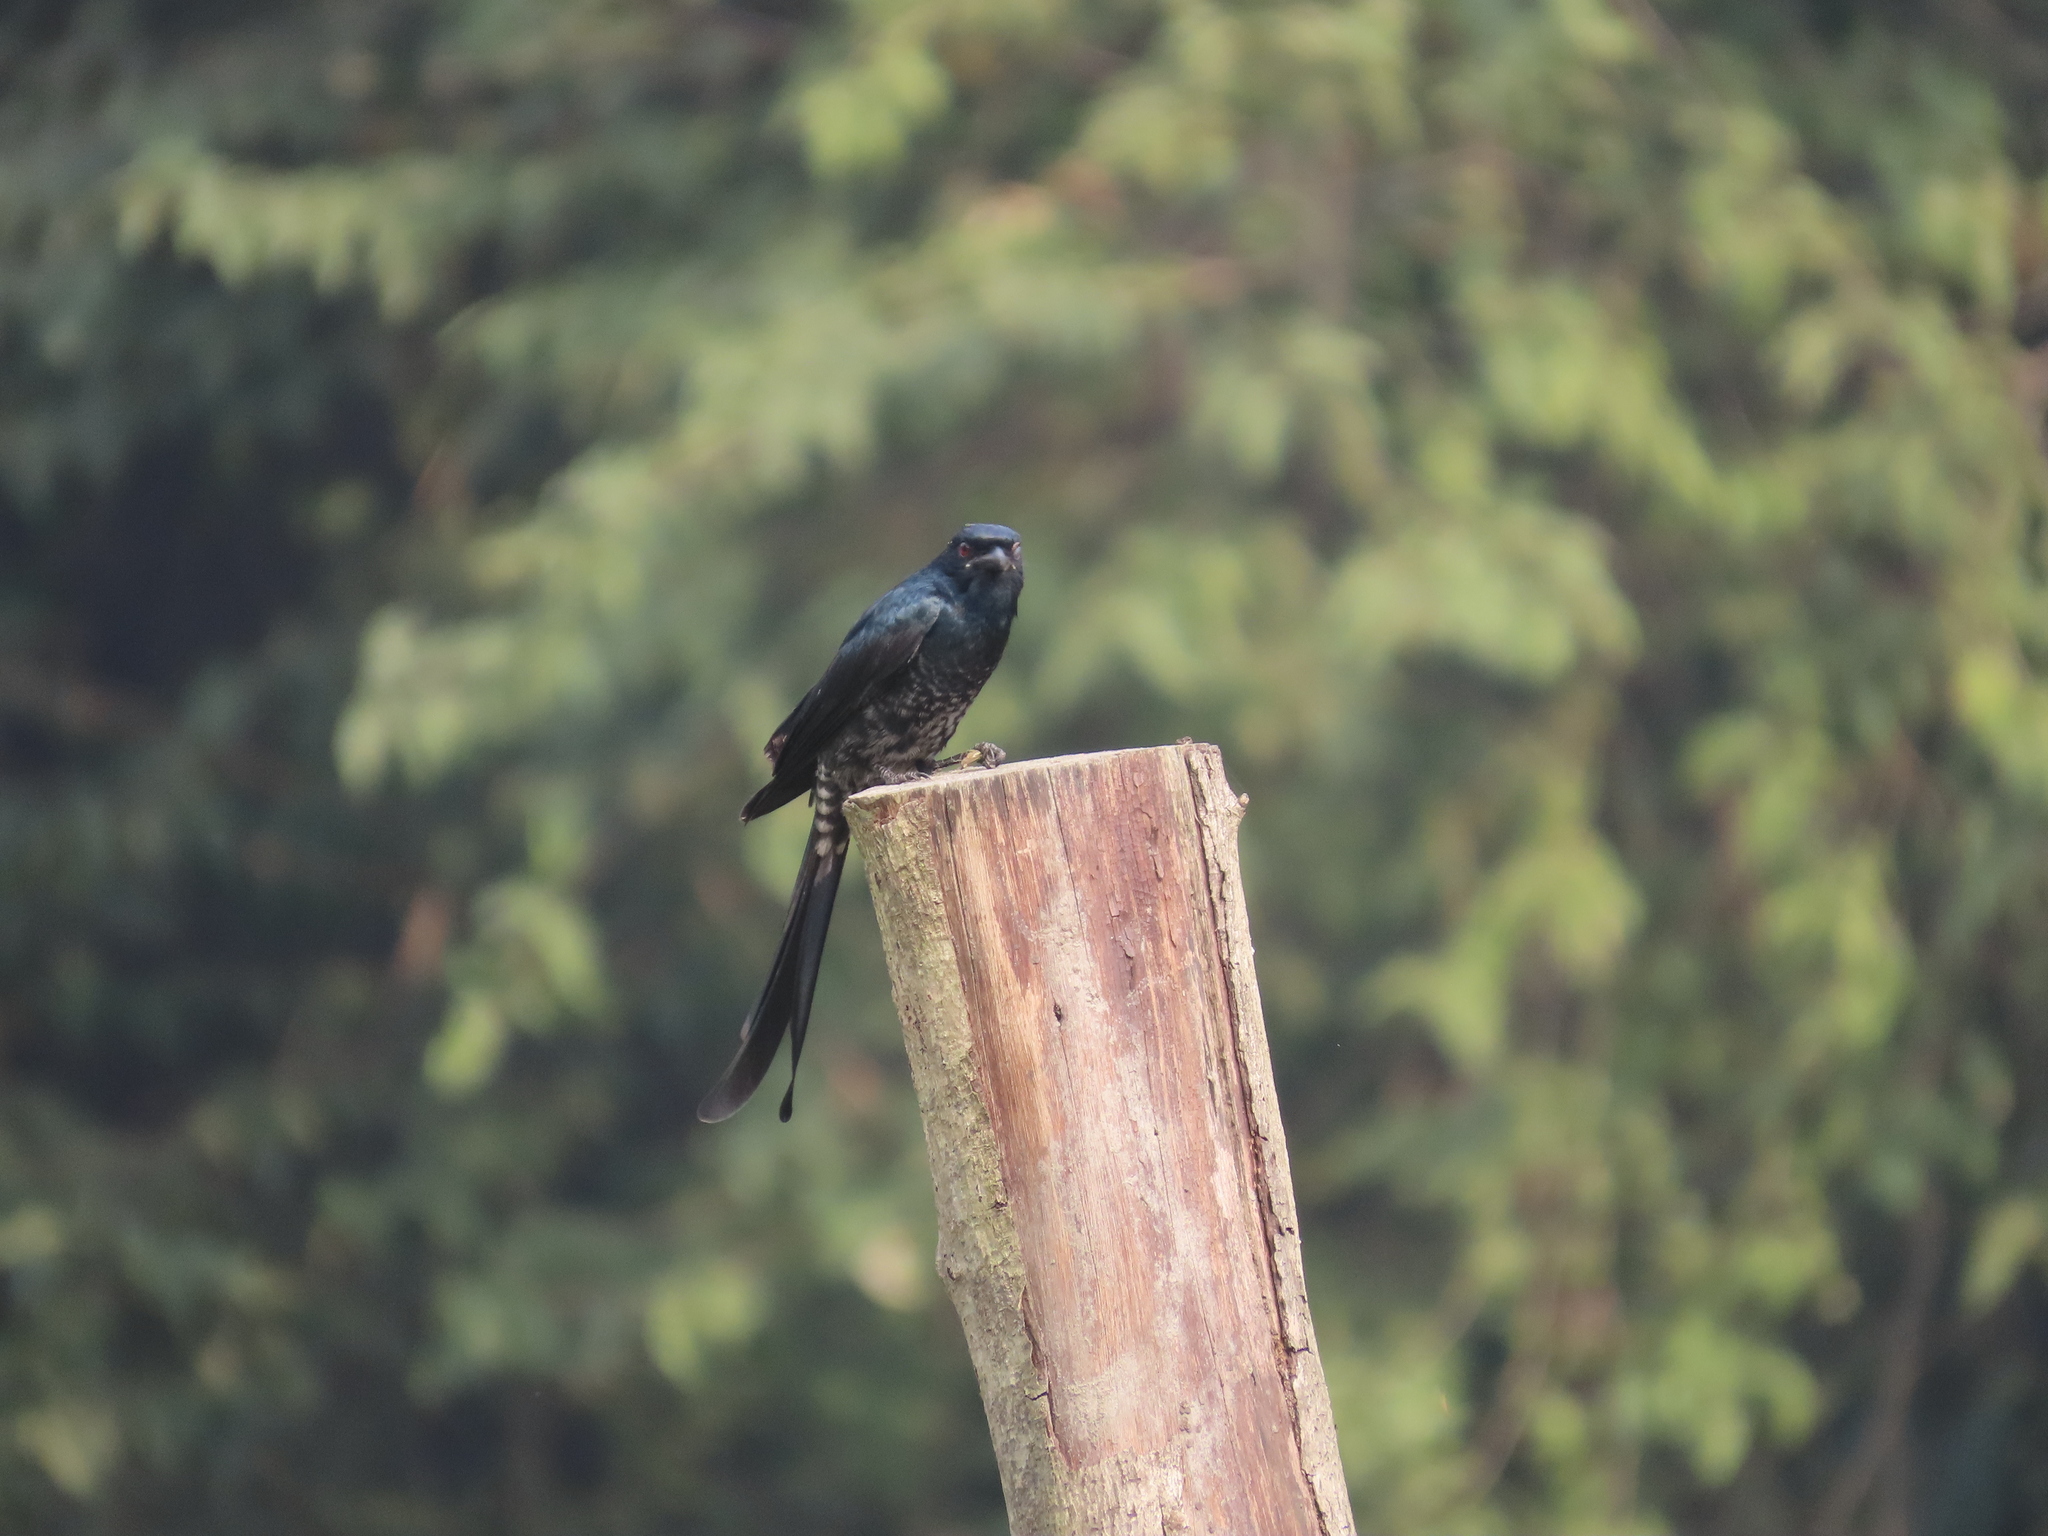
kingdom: Animalia
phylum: Chordata
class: Aves
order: Passeriformes
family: Dicruridae
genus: Dicrurus
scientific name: Dicrurus macrocercus
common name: Black drongo
